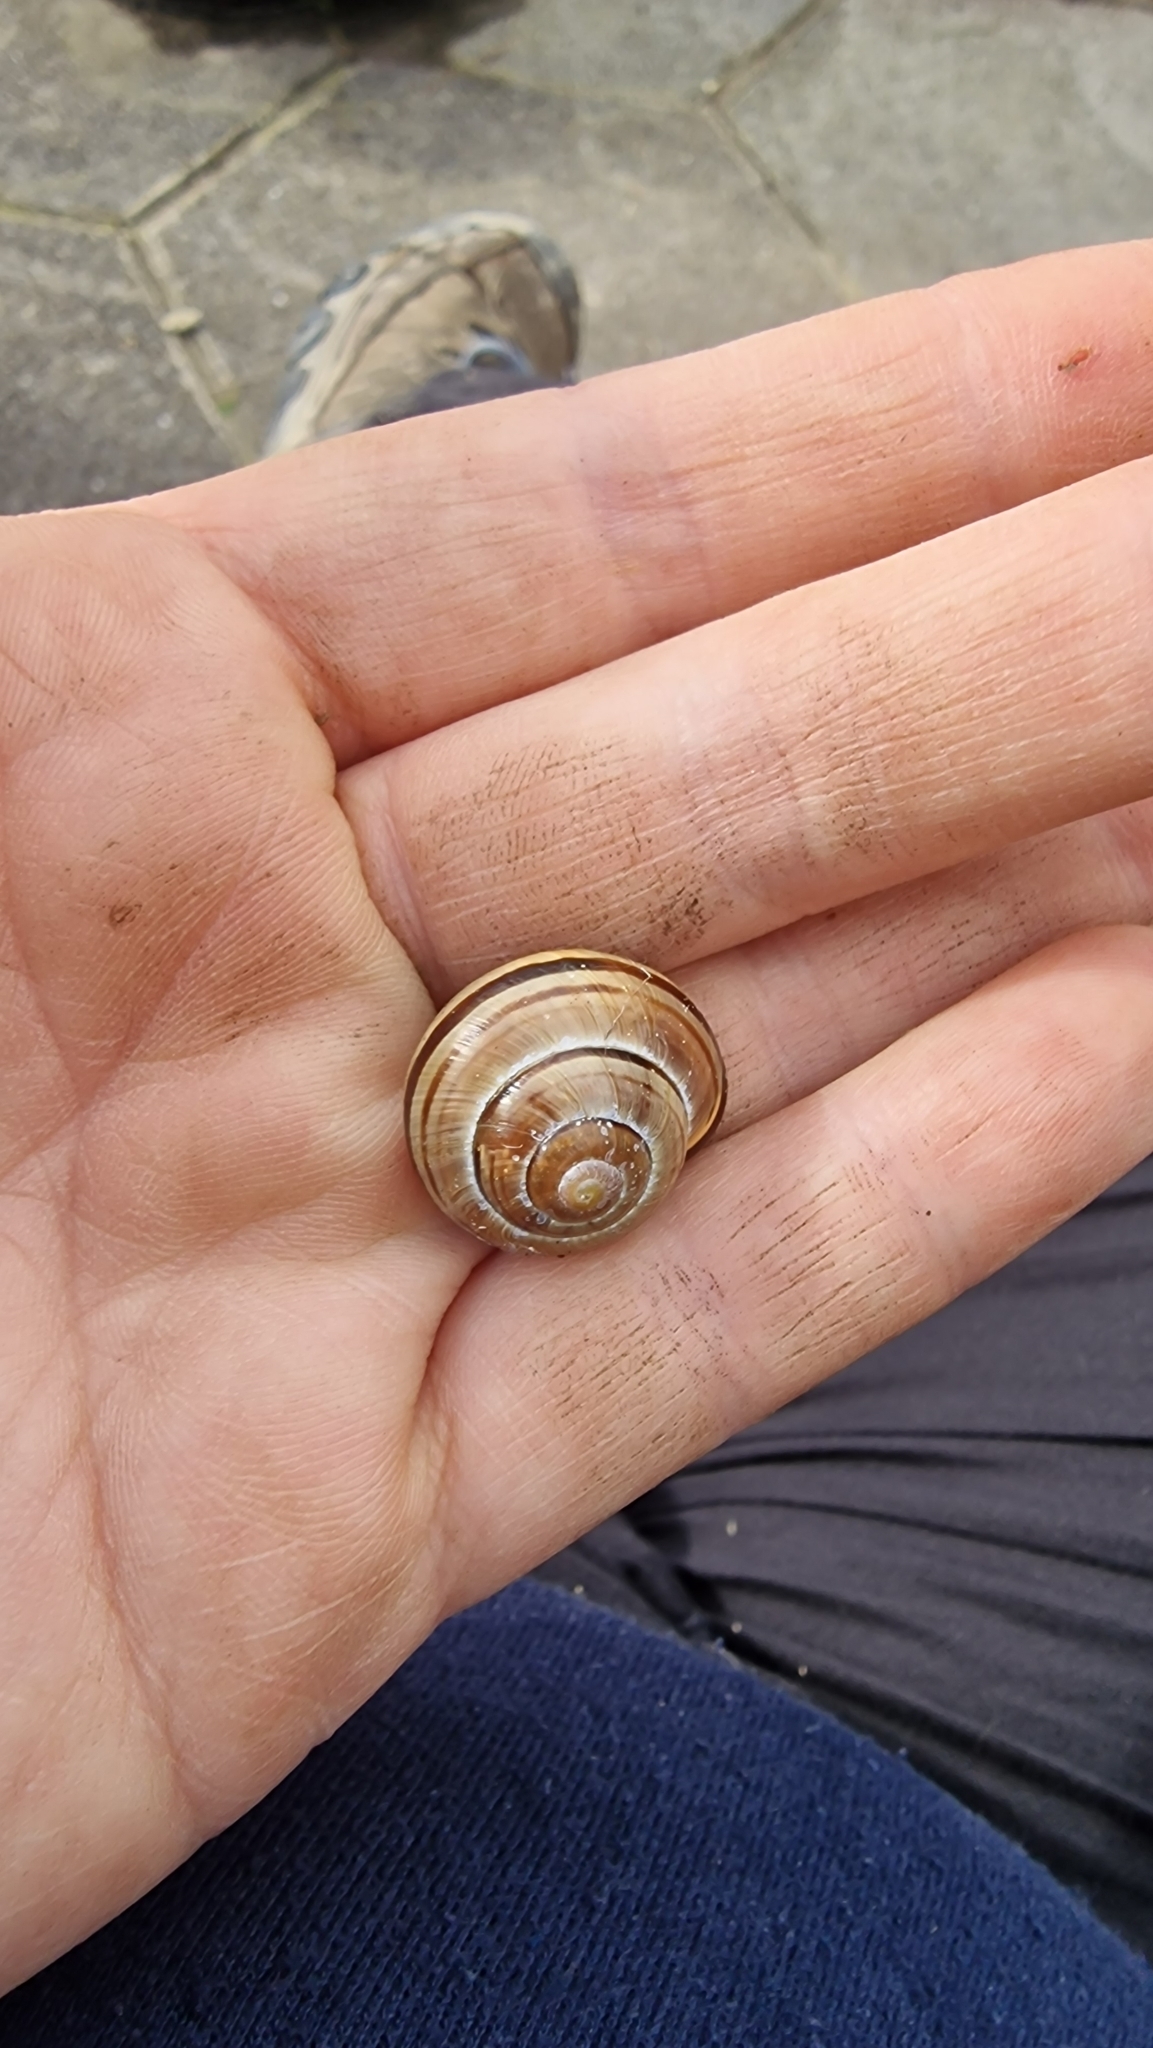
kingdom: Animalia
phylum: Mollusca
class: Gastropoda
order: Stylommatophora
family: Helicidae
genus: Cepaea
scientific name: Cepaea nemoralis
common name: Grovesnail
